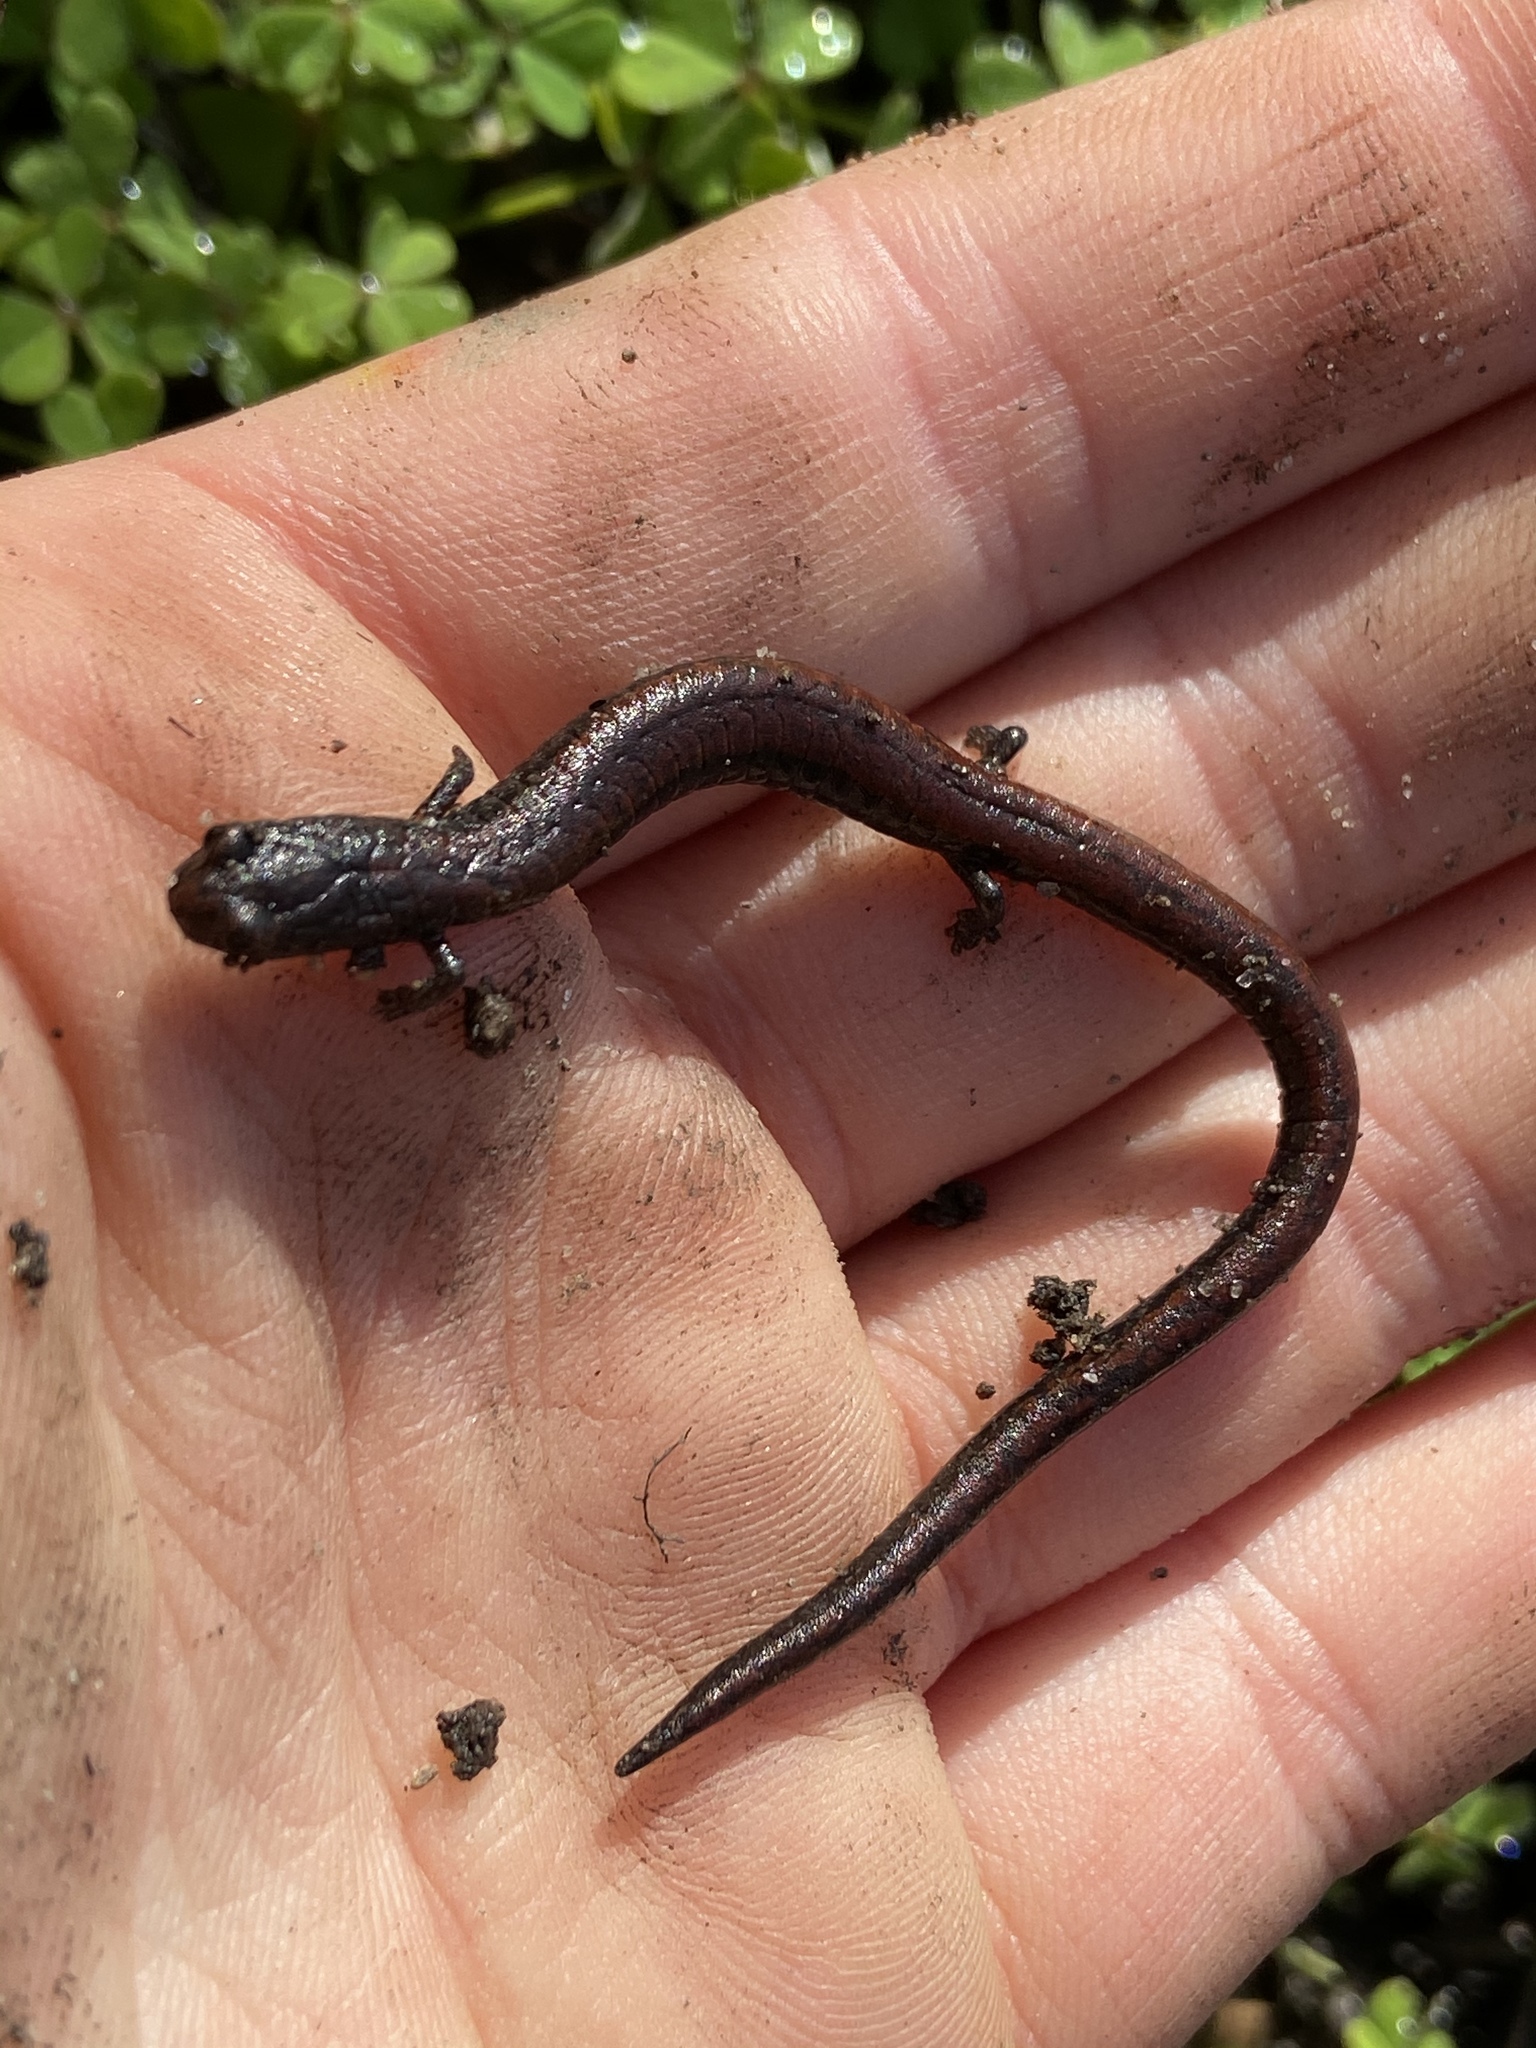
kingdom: Animalia
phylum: Chordata
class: Amphibia
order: Caudata
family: Plethodontidae
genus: Batrachoseps
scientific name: Batrachoseps attenuatus
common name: California slender salamander
